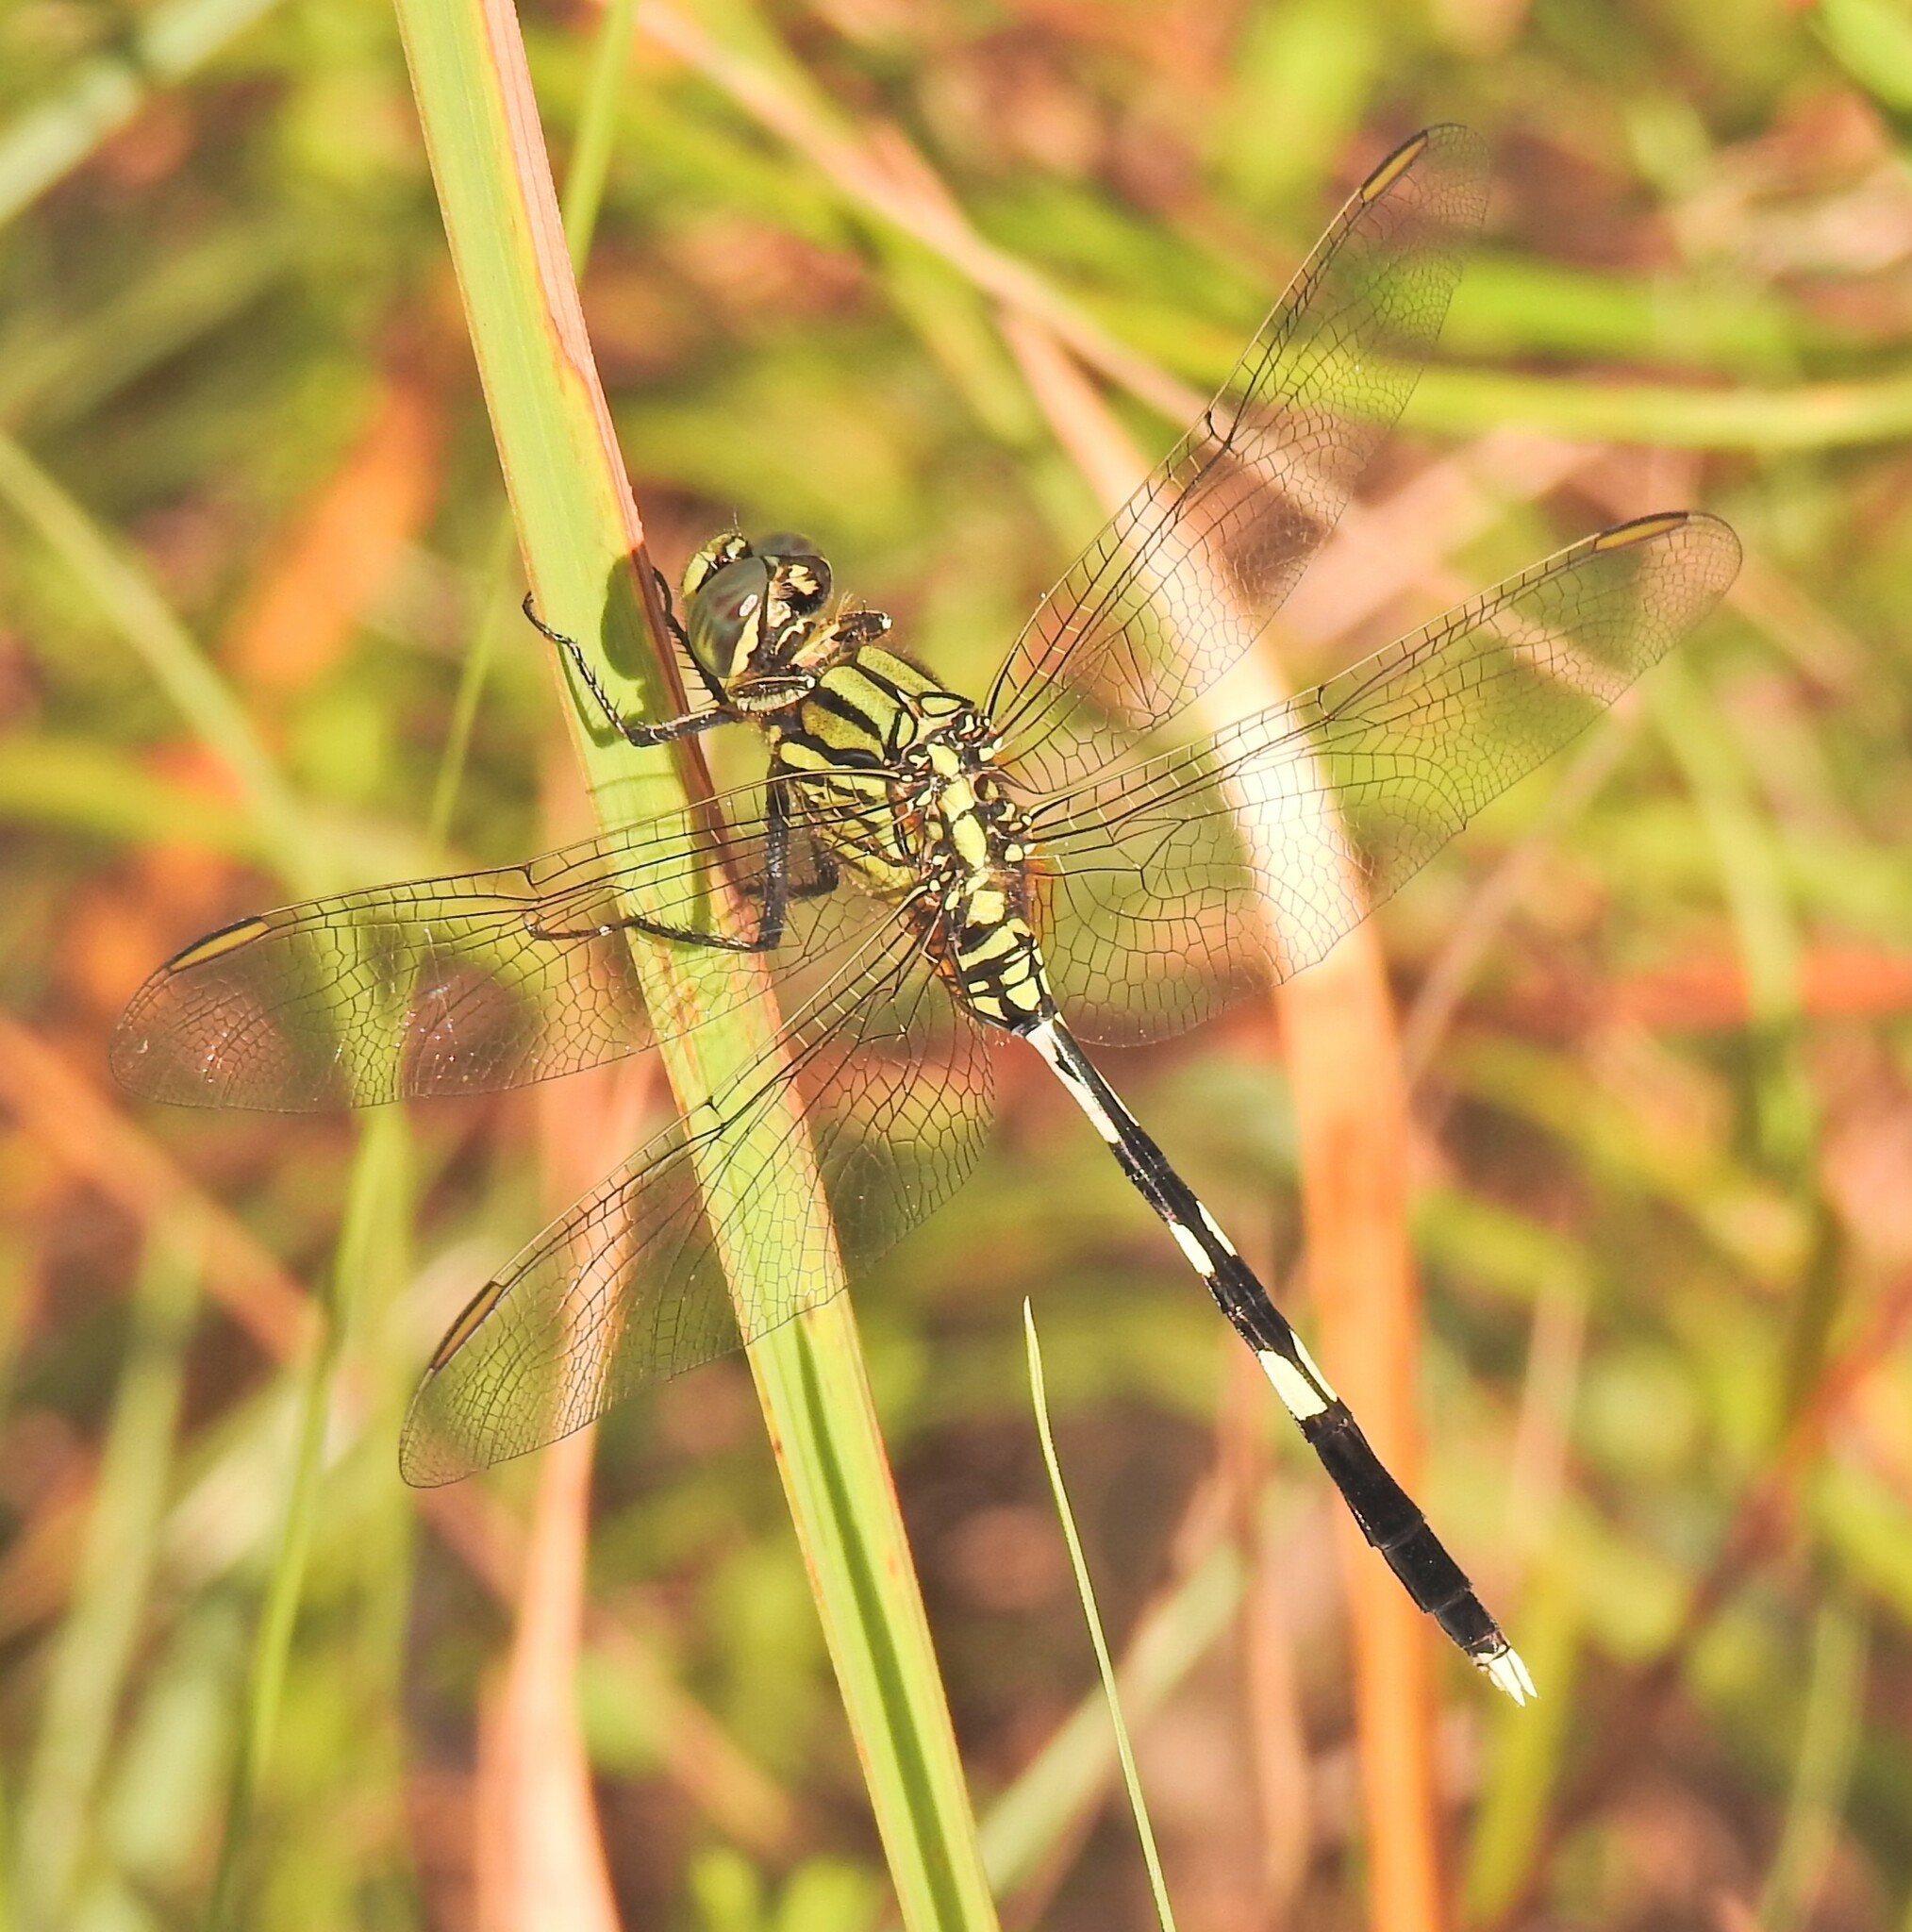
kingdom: Animalia
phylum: Arthropoda
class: Insecta
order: Odonata
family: Libellulidae
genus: Orthetrum
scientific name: Orthetrum sabina
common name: Slender skimmer
